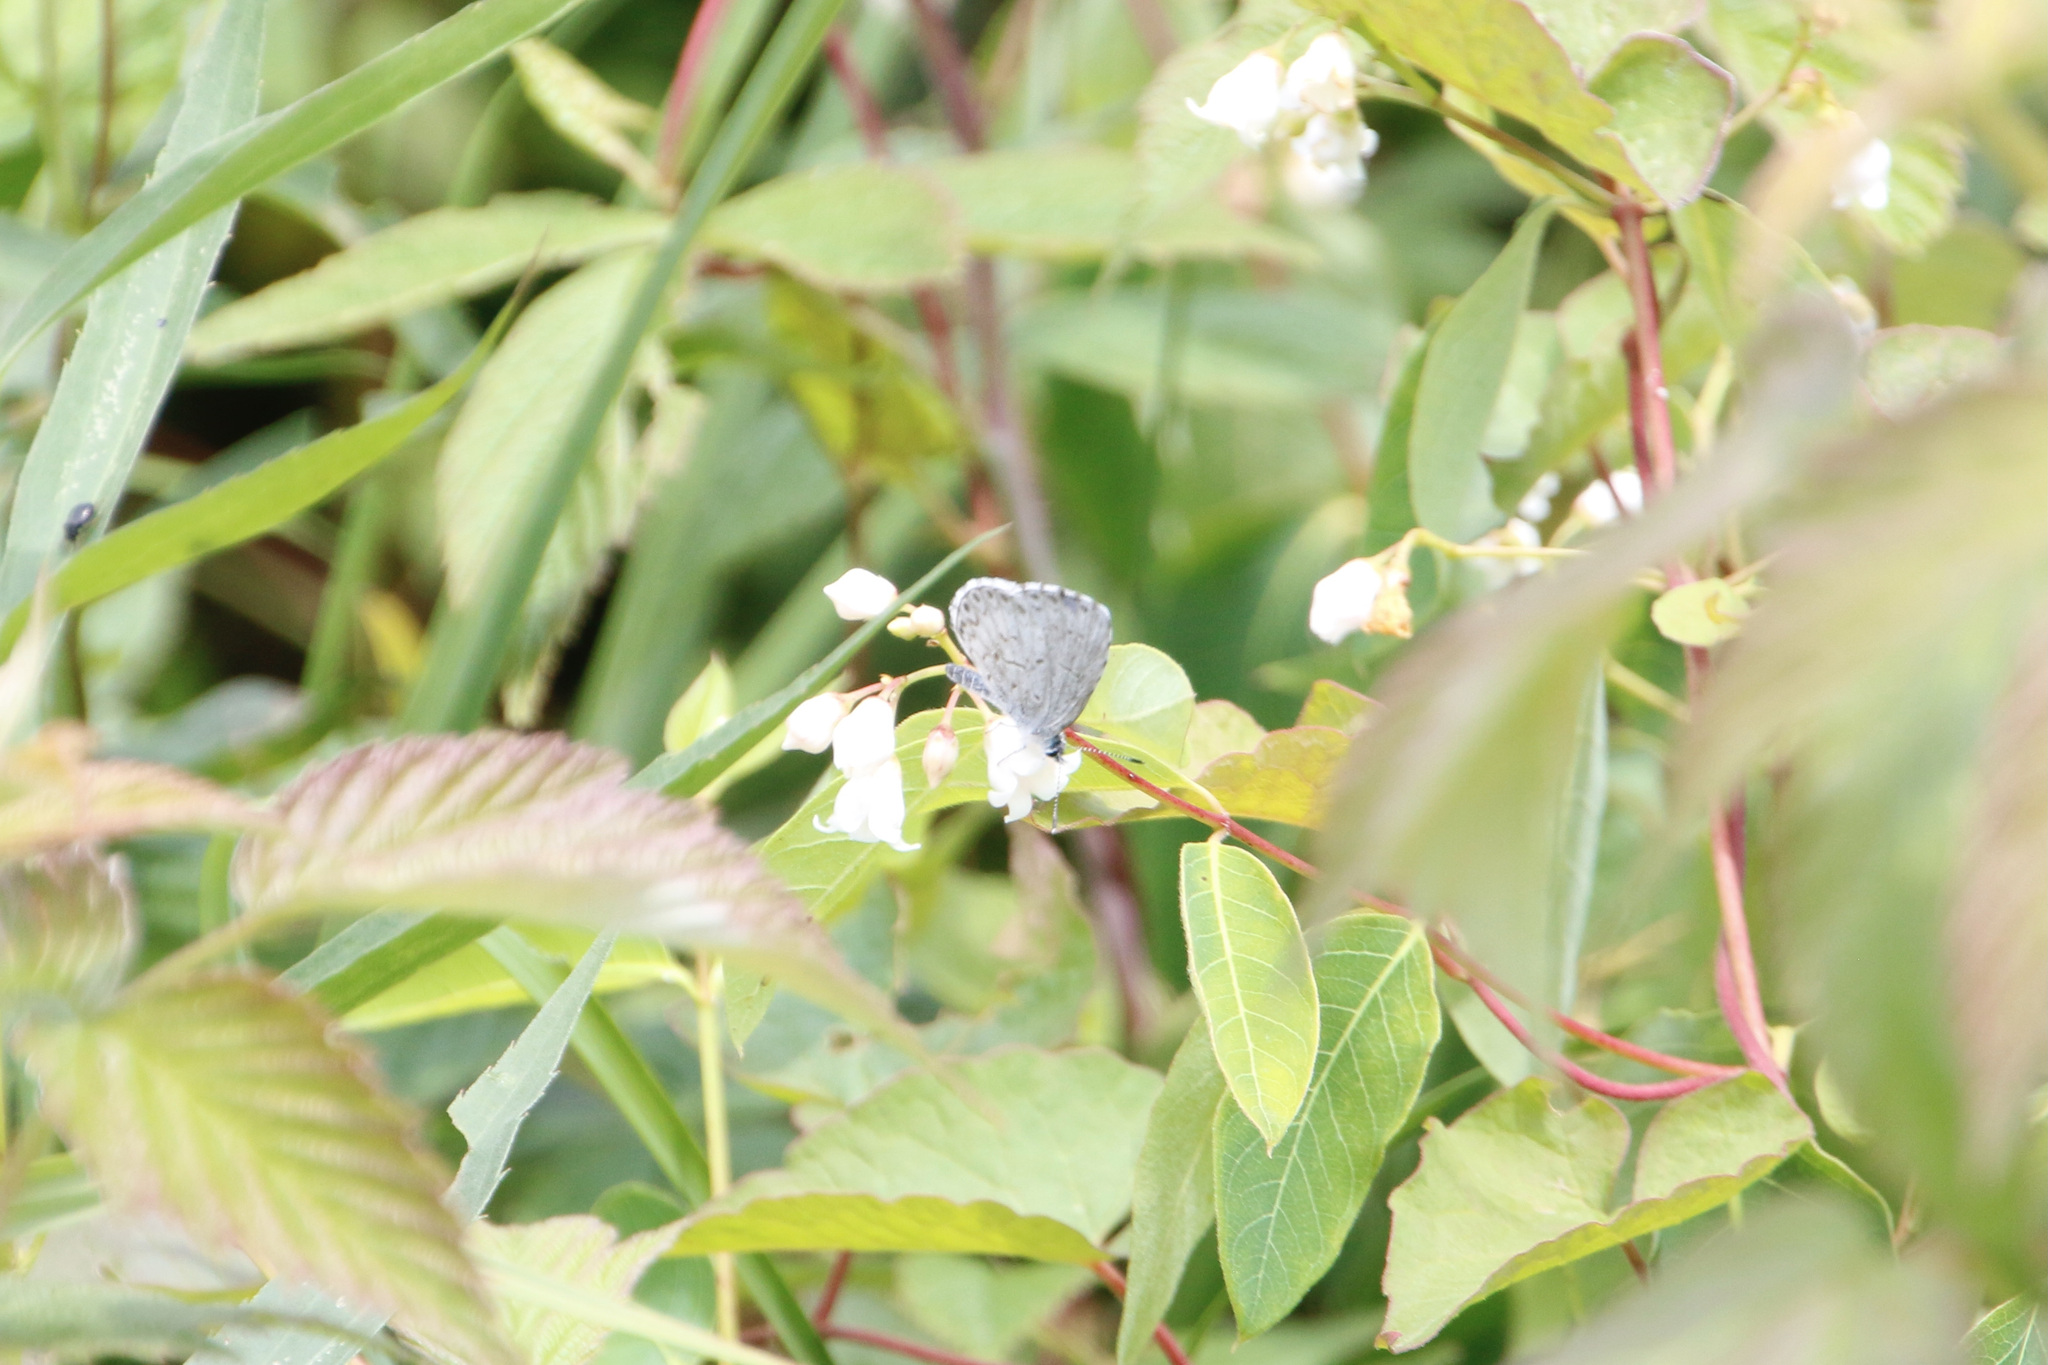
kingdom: Animalia
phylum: Arthropoda
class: Insecta
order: Lepidoptera
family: Lycaenidae
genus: Celastrina
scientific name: Celastrina lucia
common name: Lucia azure
